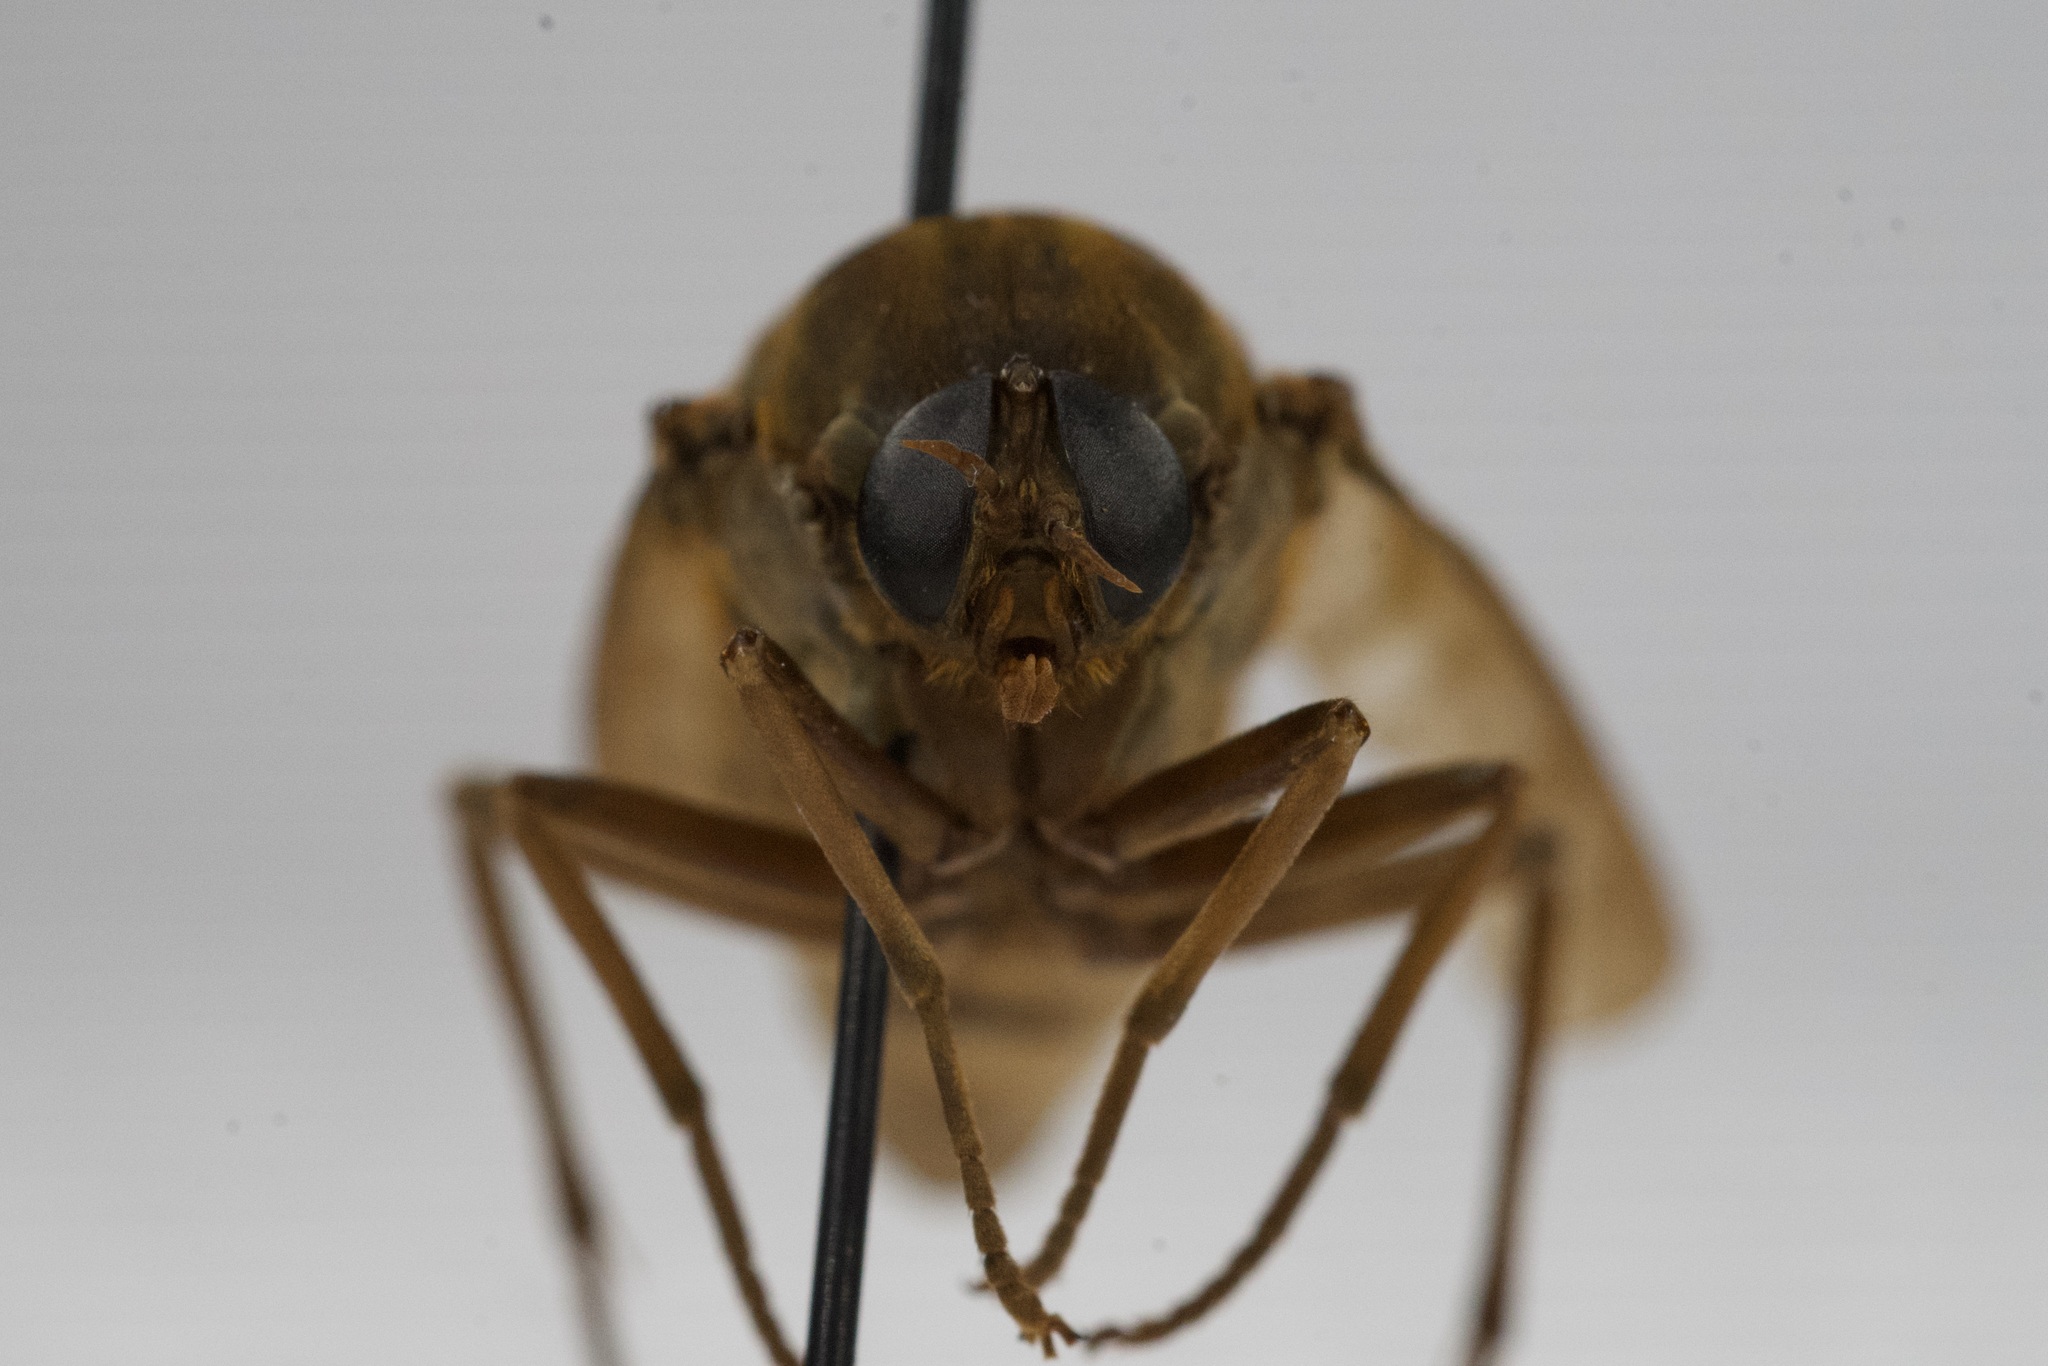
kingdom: Animalia
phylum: Arthropoda
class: Insecta
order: Diptera
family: Xylophagidae
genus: Coenomyia
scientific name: Coenomyia ferruginea
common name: Stink fly
